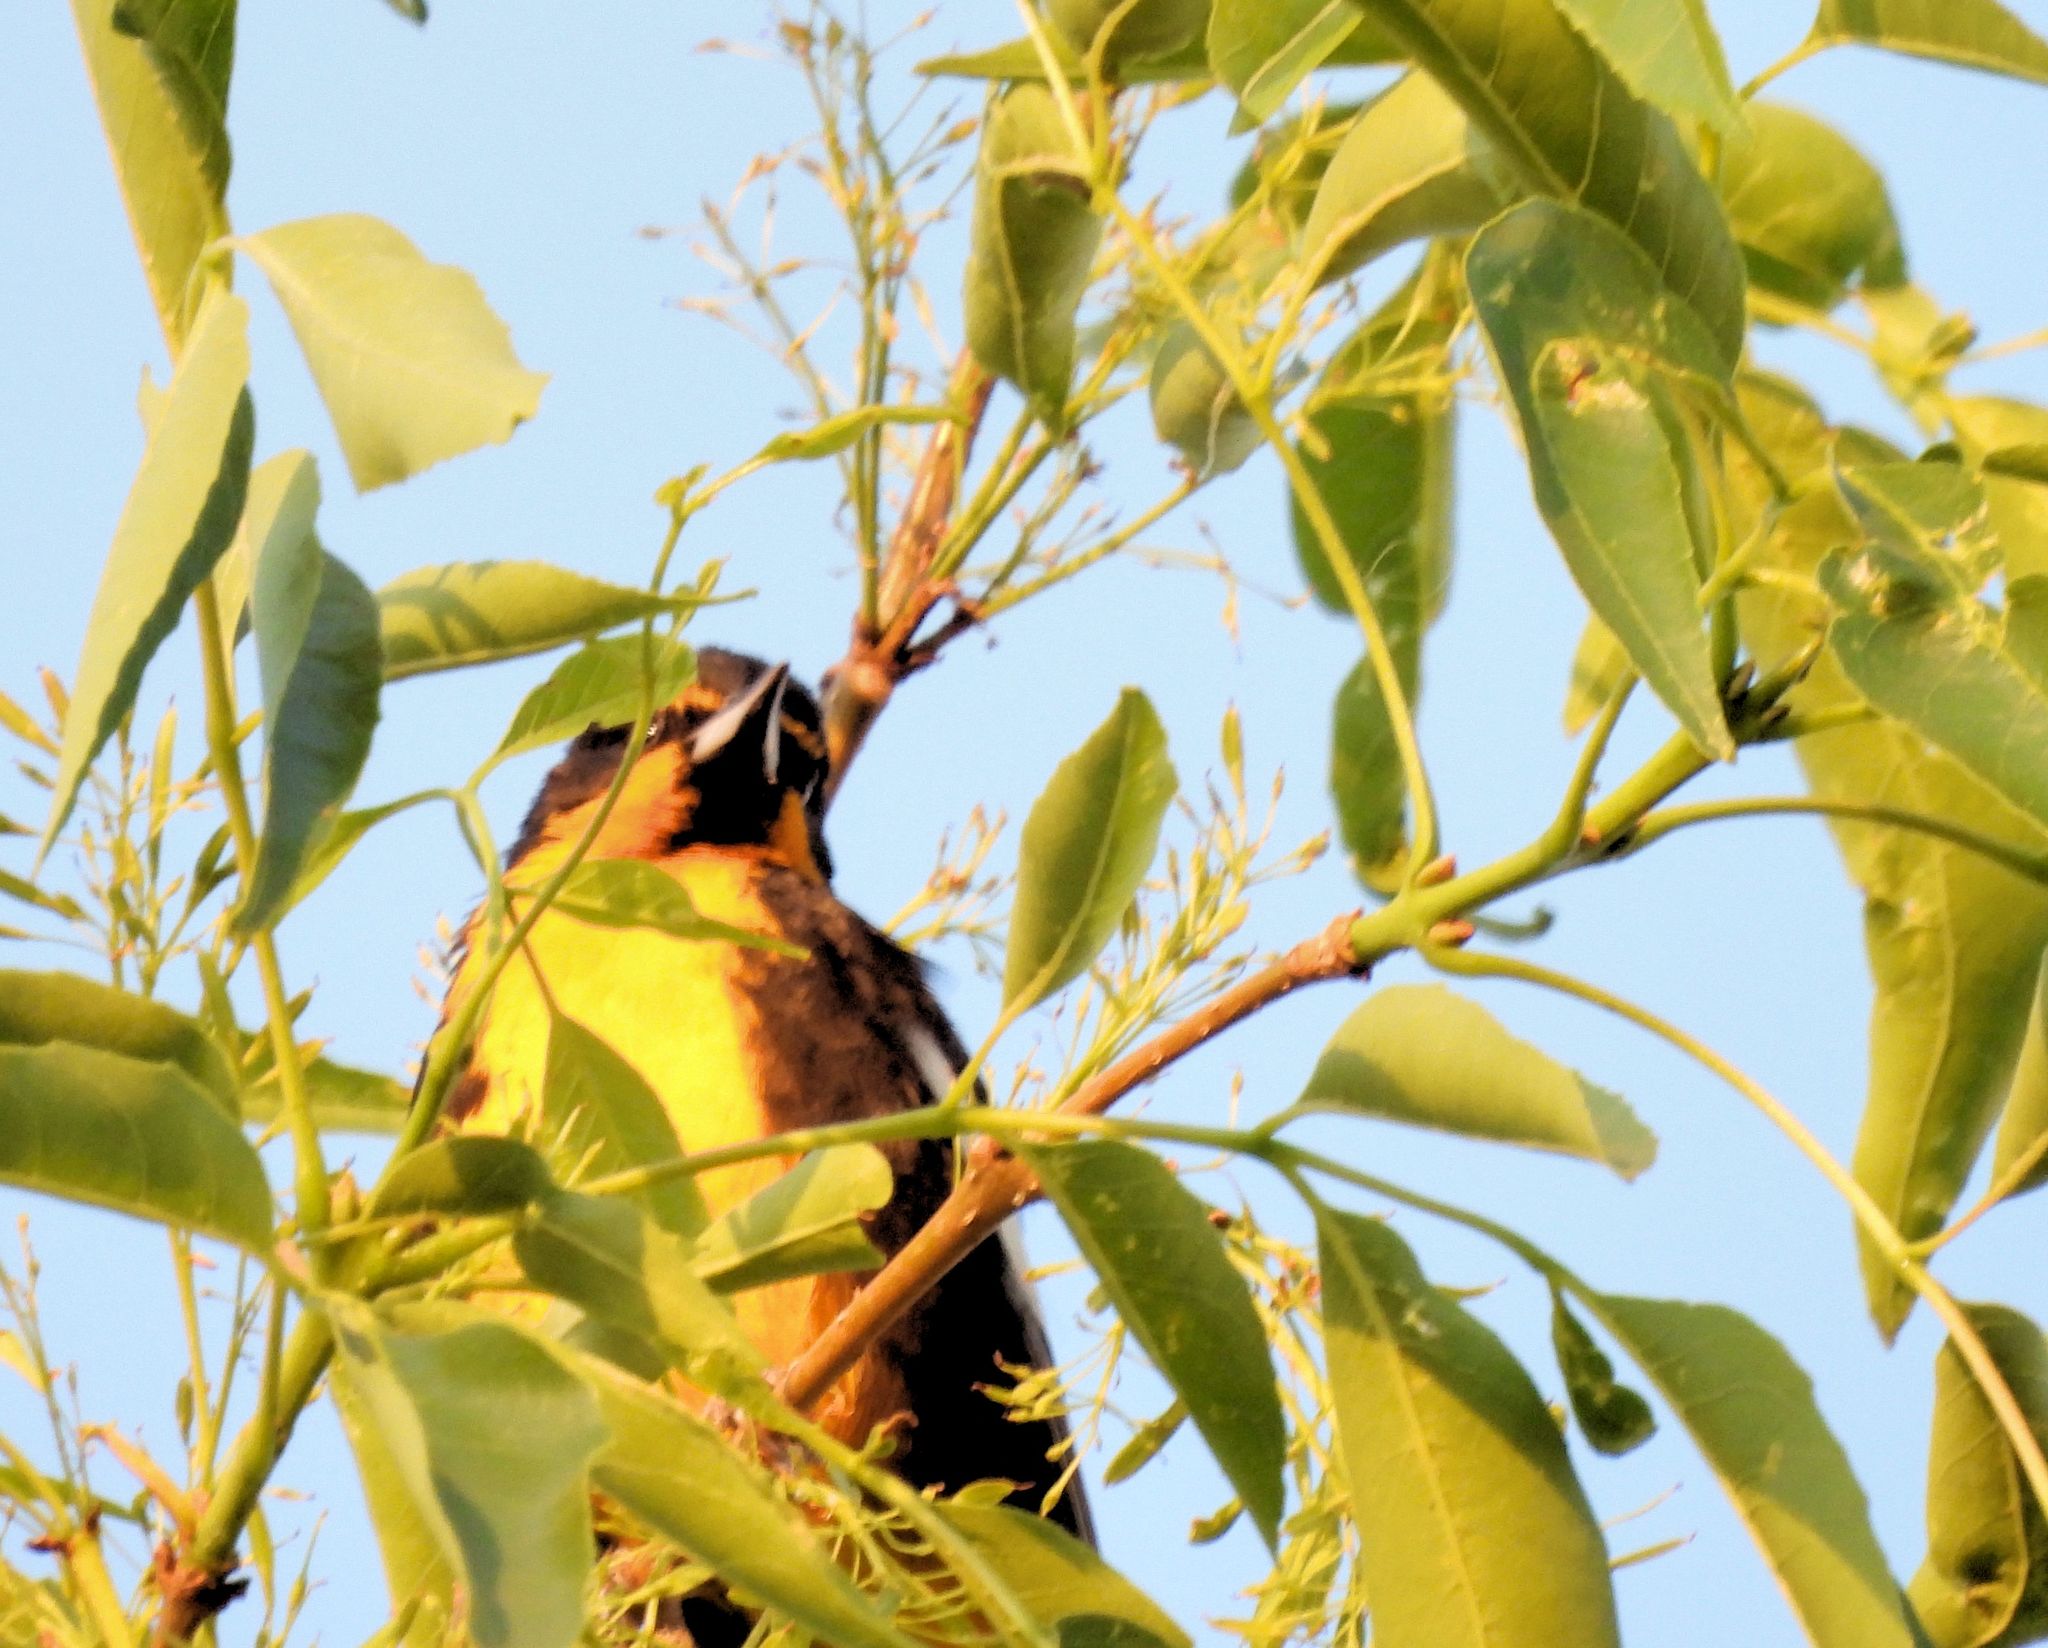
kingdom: Animalia
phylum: Chordata
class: Aves
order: Passeriformes
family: Icteridae
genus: Icterus
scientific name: Icterus abeillei
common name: Black-backed oriole
